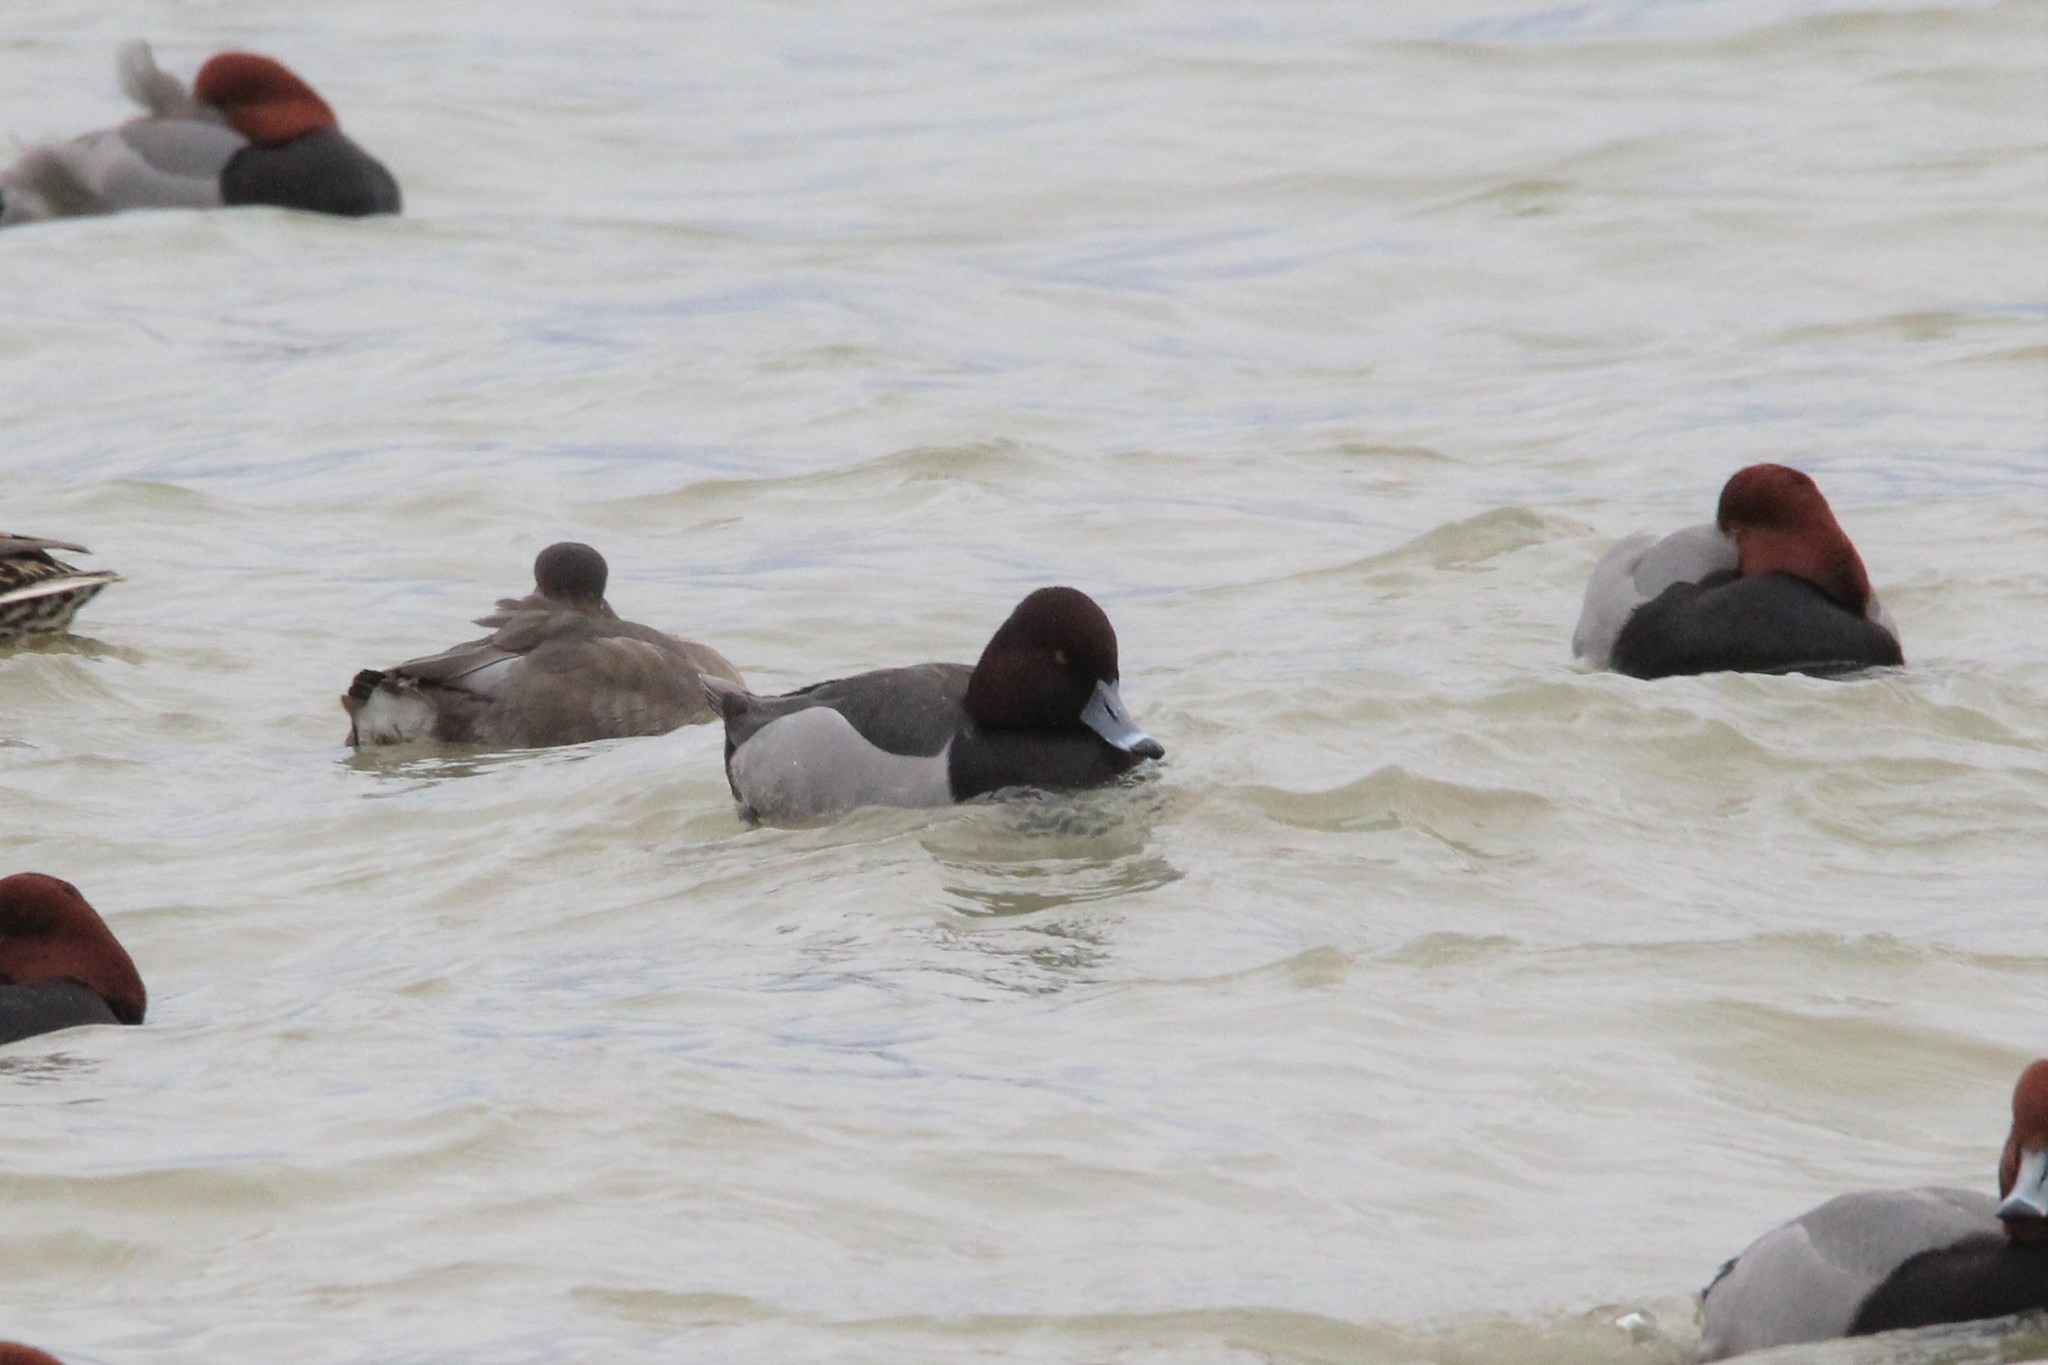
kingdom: Animalia
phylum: Chordata
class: Aves
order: Anseriformes
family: Anatidae
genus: Aythya
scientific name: Aythya
